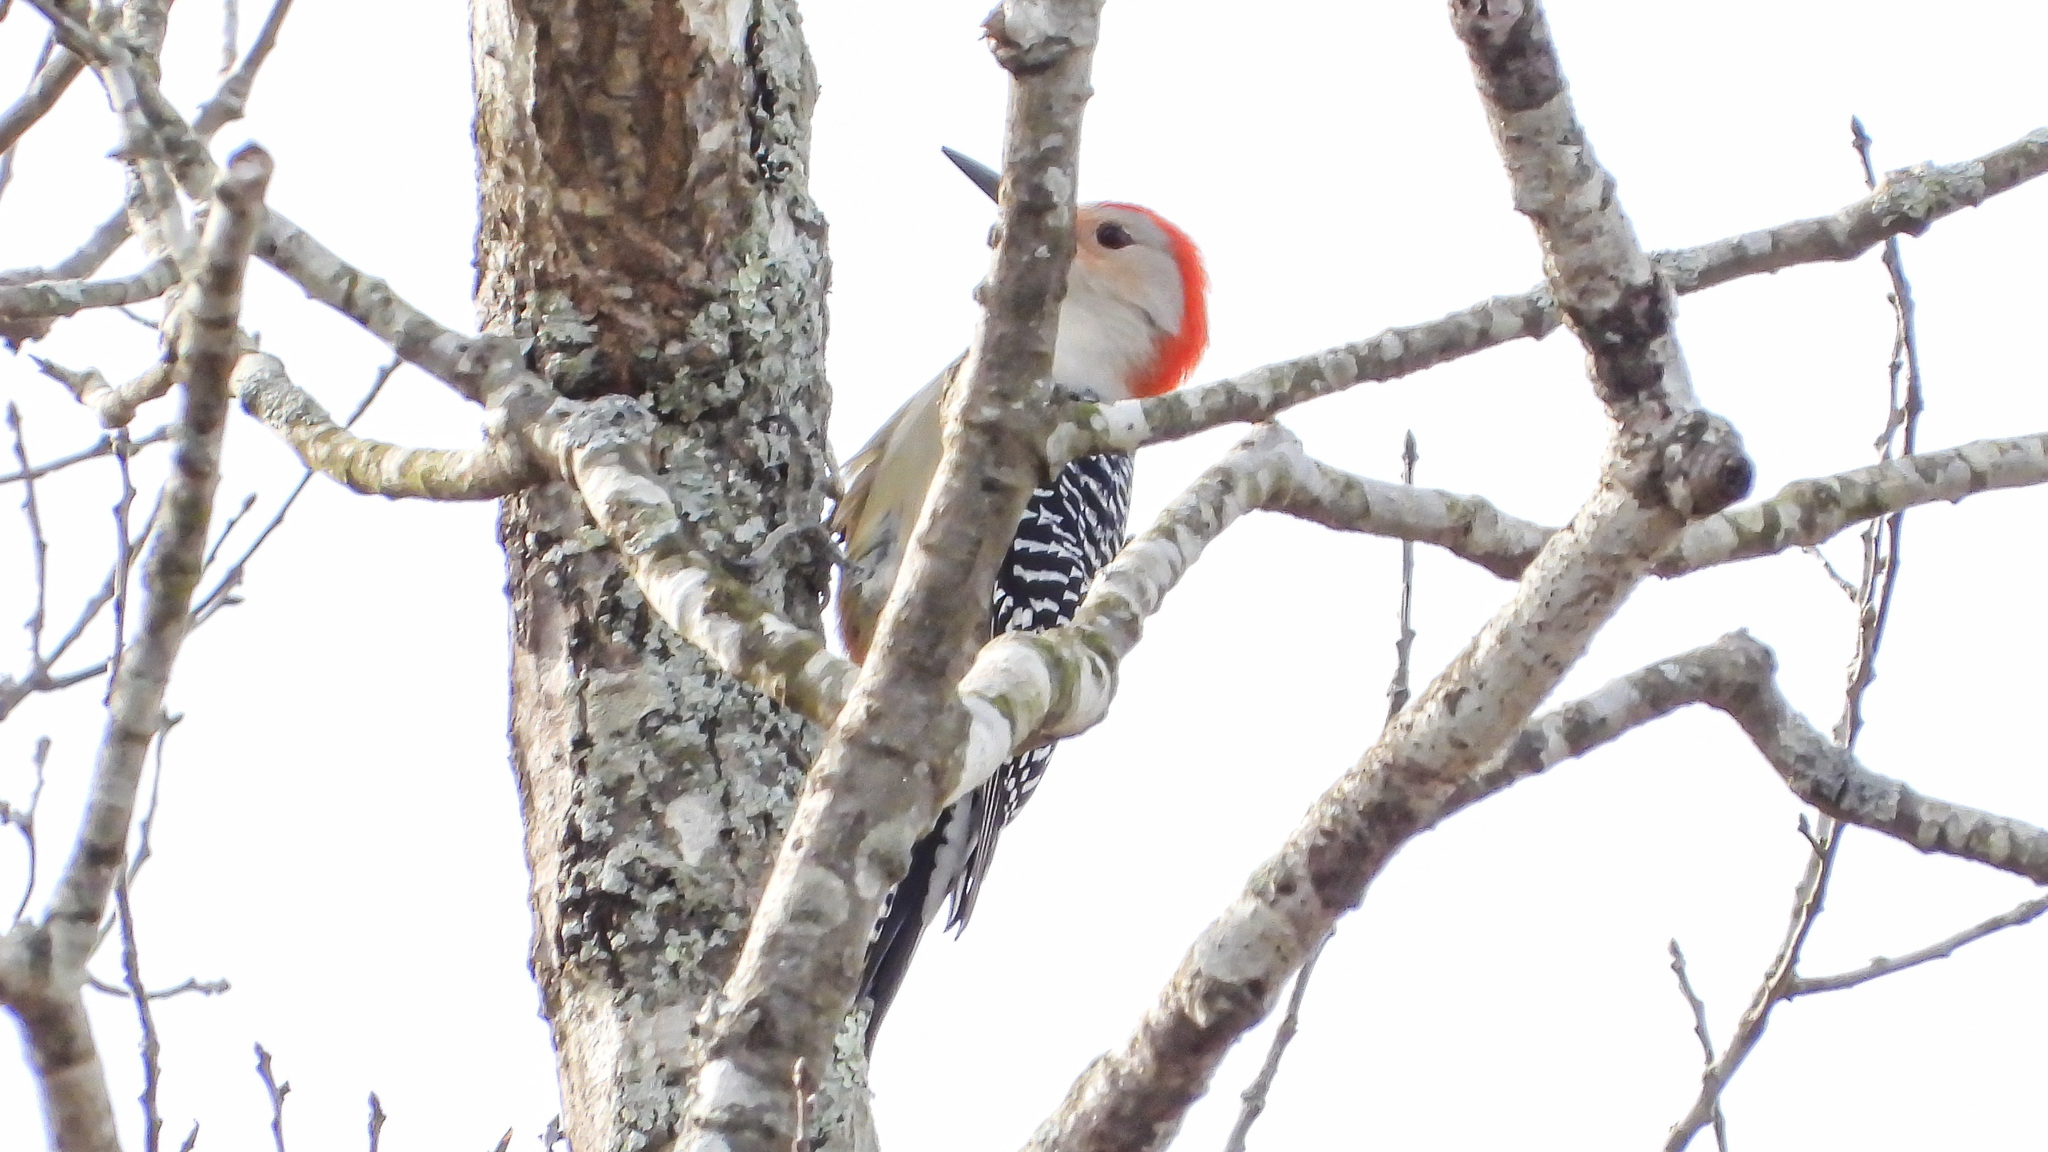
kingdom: Animalia
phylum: Chordata
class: Aves
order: Piciformes
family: Picidae
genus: Melanerpes
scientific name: Melanerpes carolinus
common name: Red-bellied woodpecker
